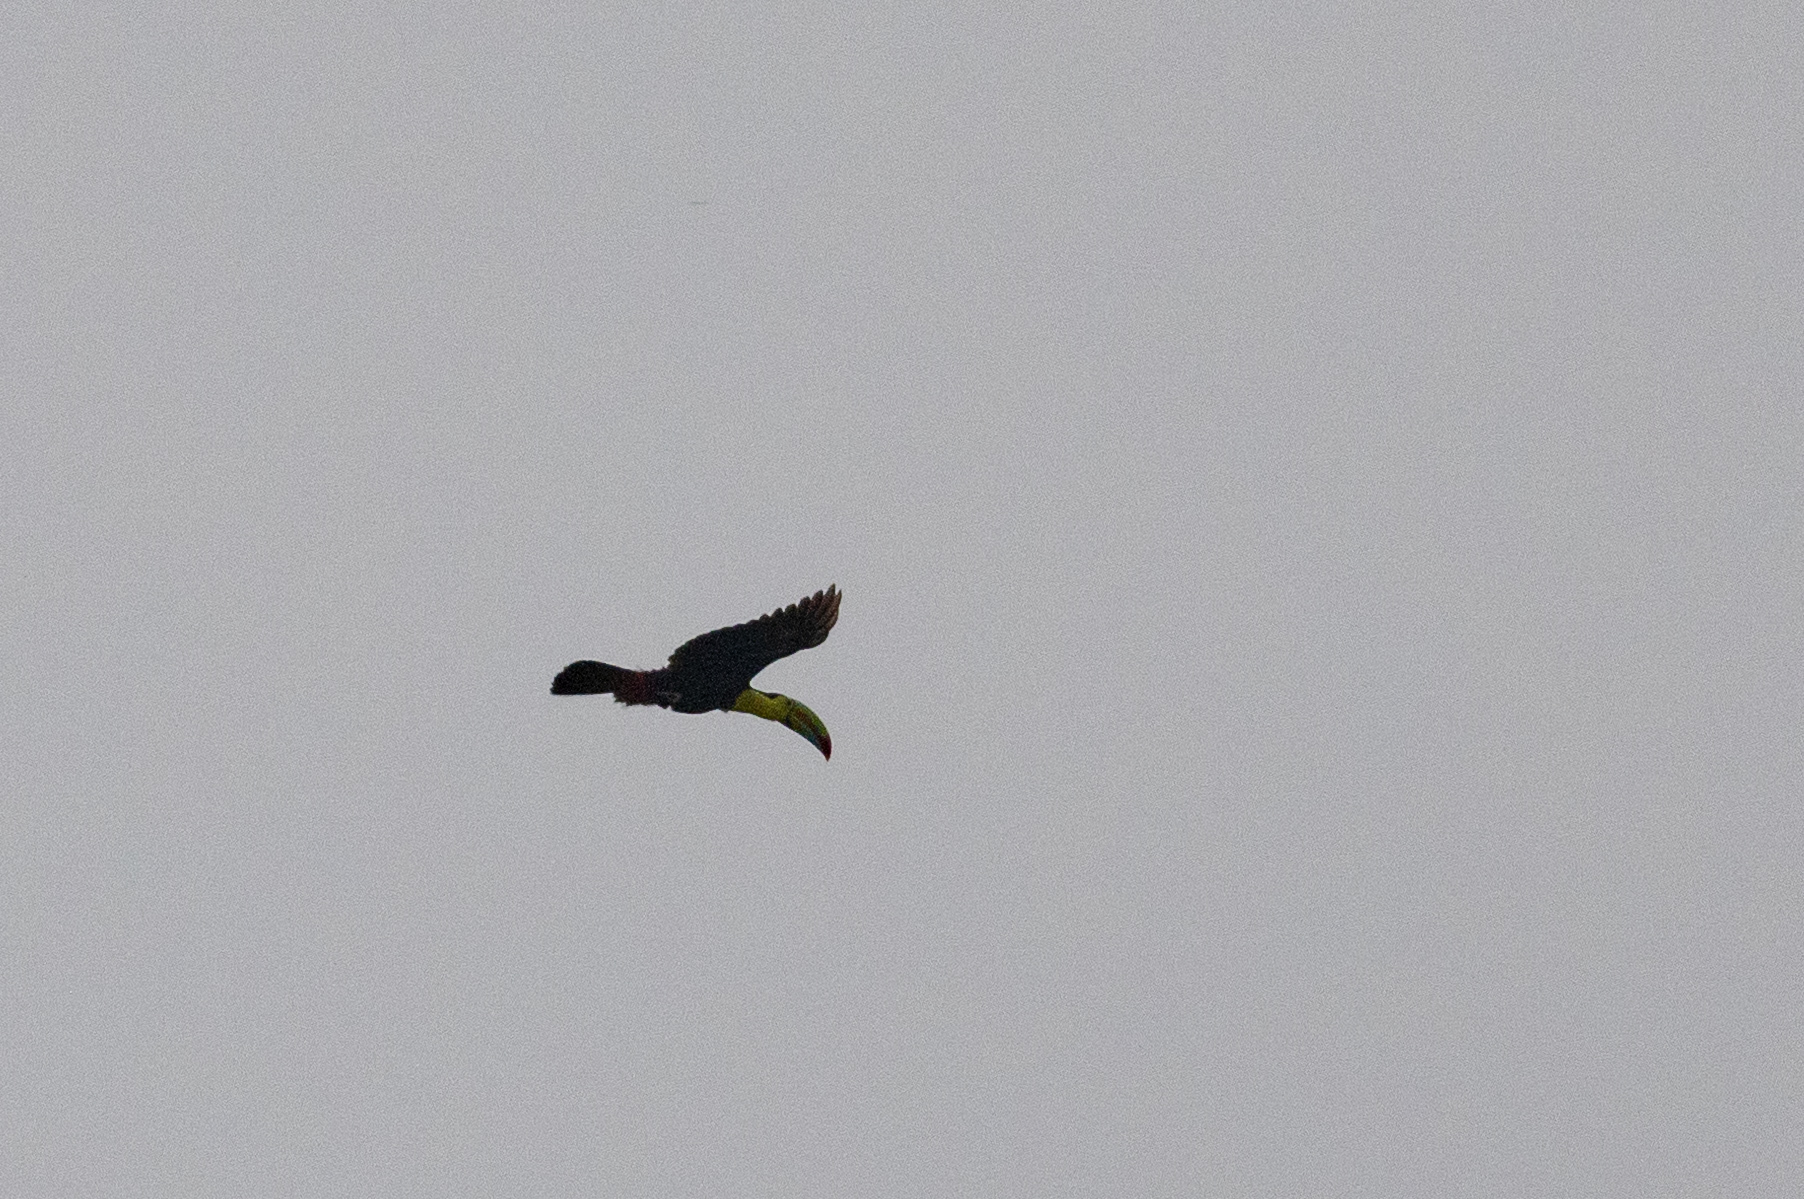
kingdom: Animalia
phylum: Chordata
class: Aves
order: Piciformes
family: Ramphastidae
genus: Ramphastos
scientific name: Ramphastos sulfuratus
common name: Keel-billed toucan
